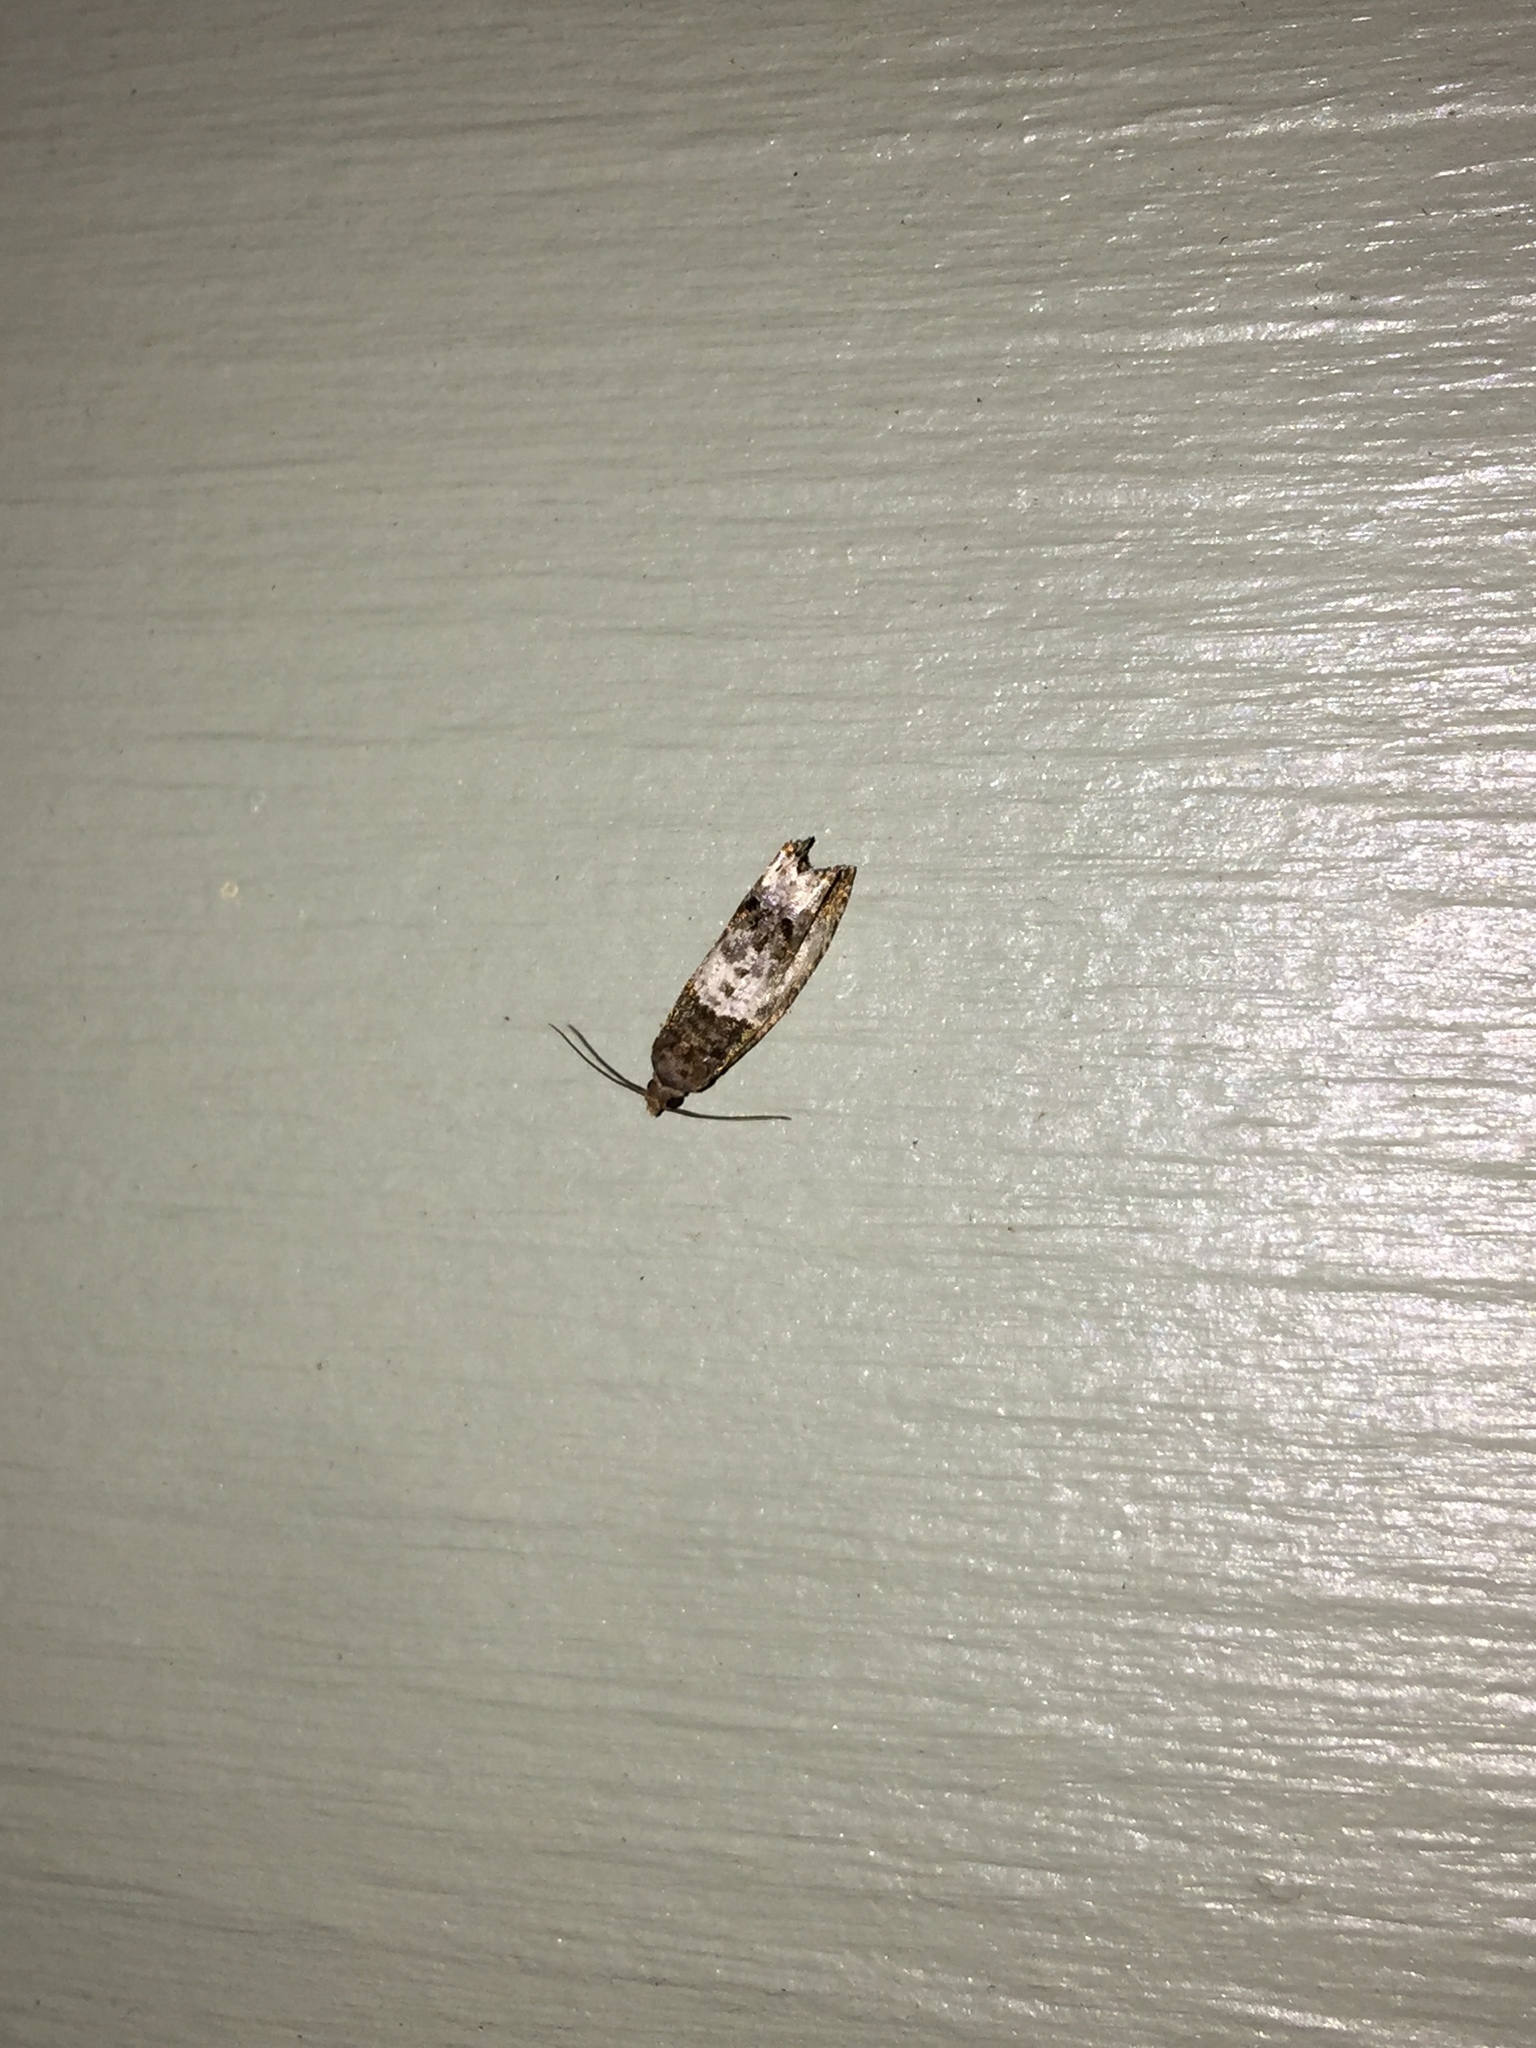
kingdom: Animalia
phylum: Arthropoda
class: Insecta
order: Lepidoptera
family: Tortricidae
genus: Notocelia
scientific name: Notocelia rosaecolana
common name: Common rose bell
